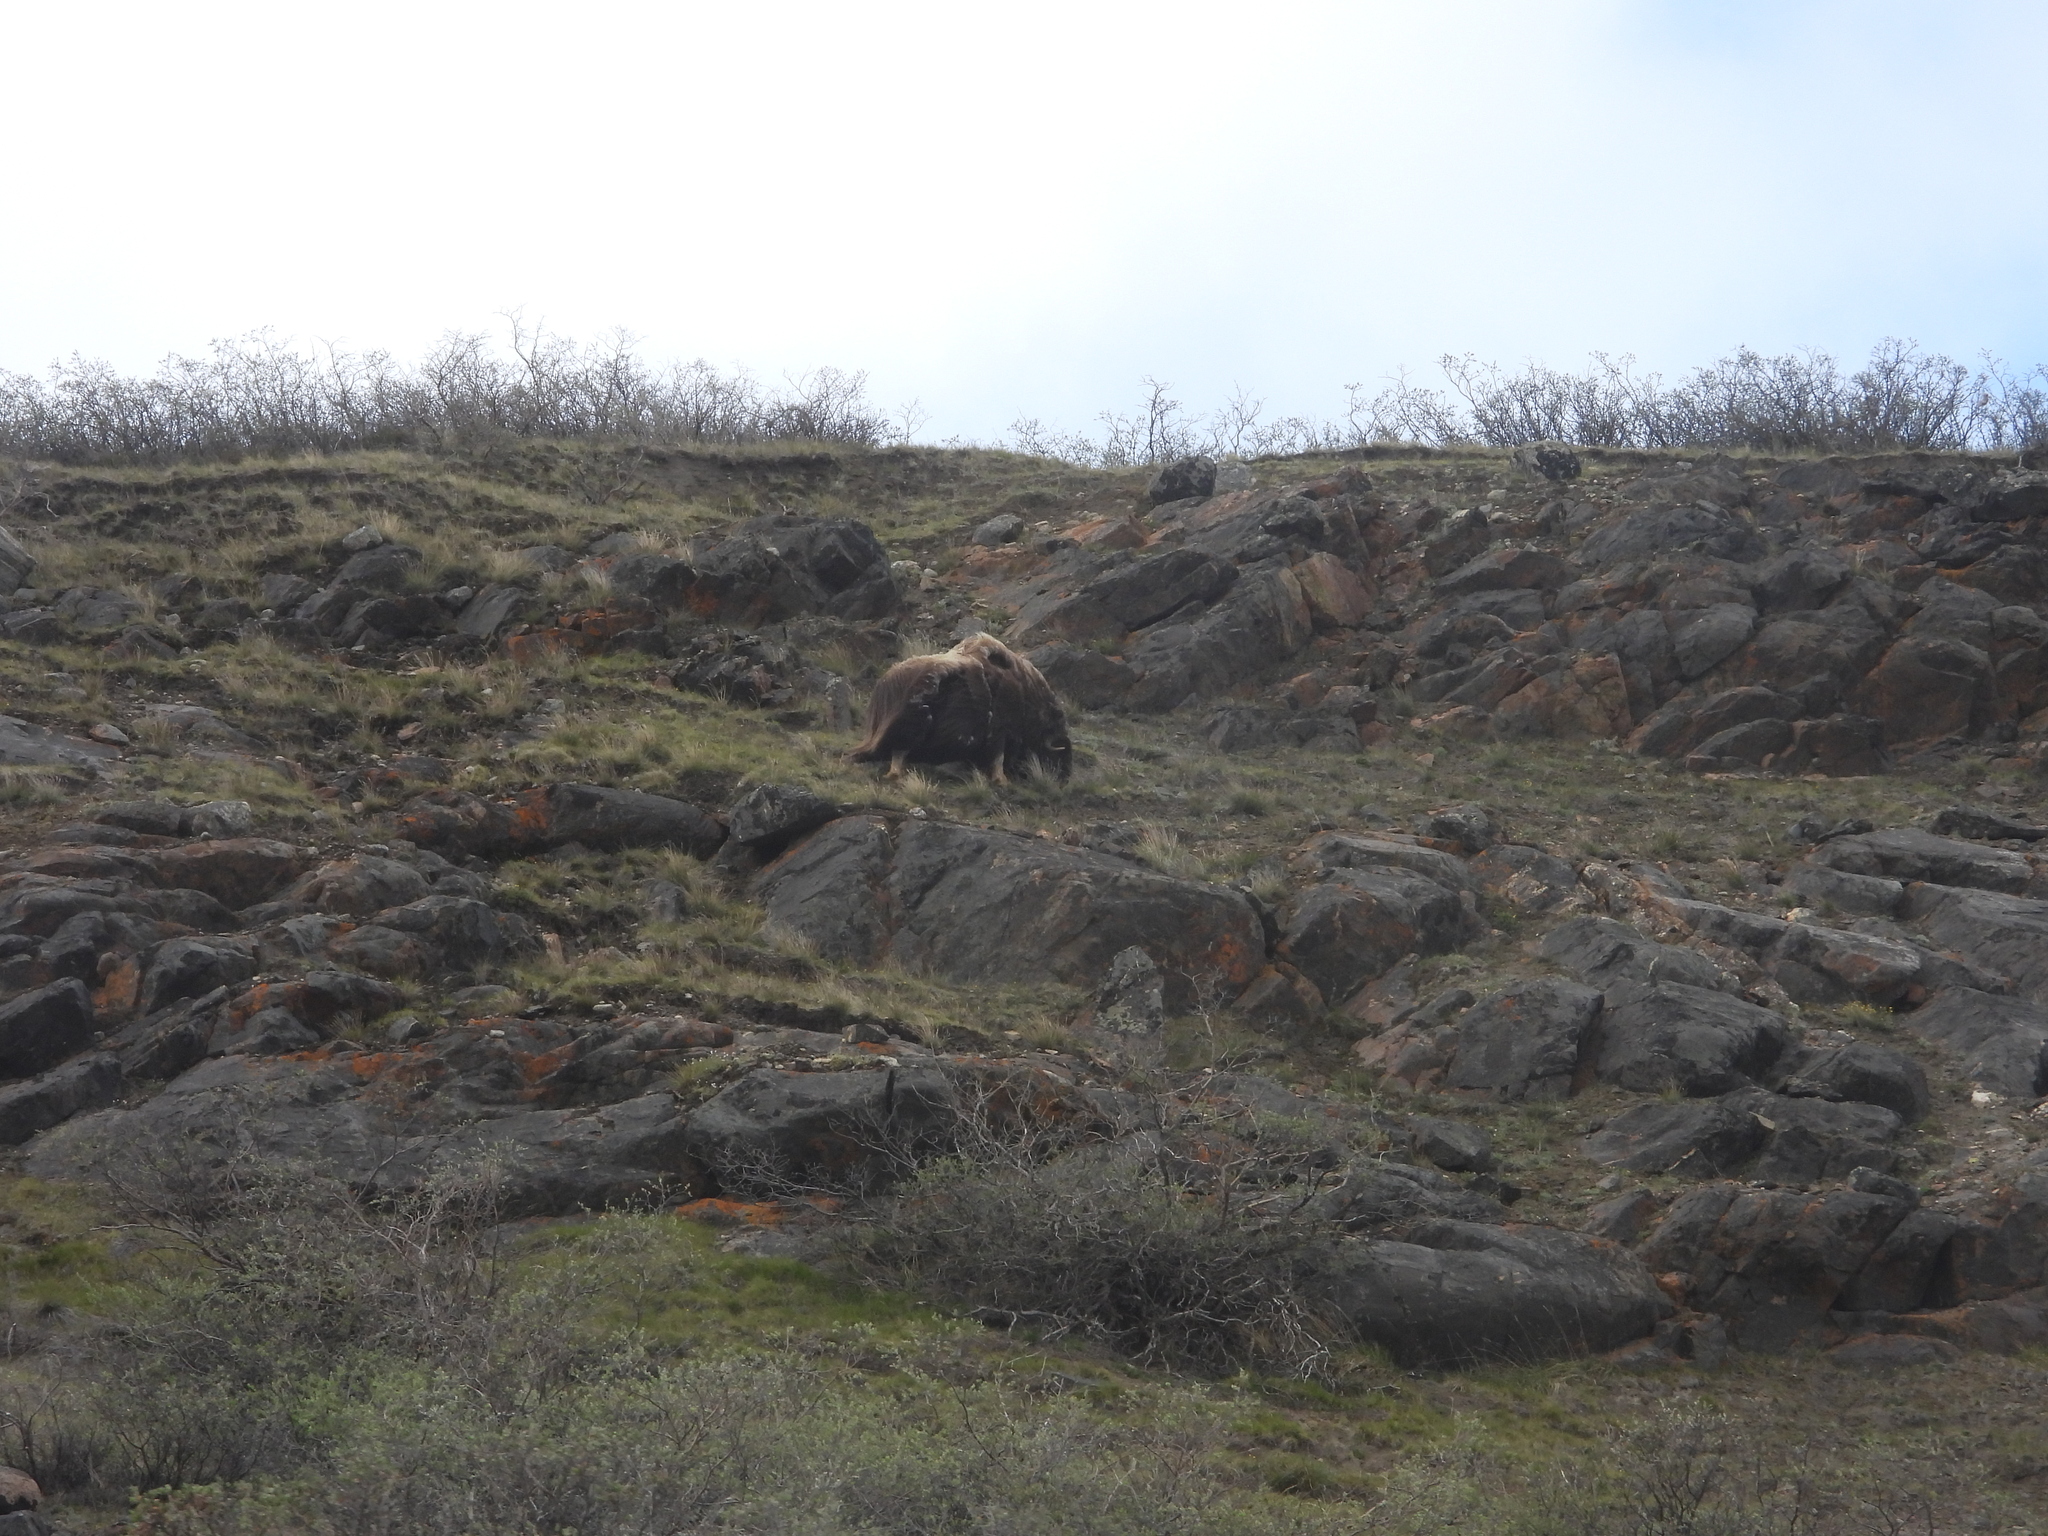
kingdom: Animalia
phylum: Chordata
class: Mammalia
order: Artiodactyla
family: Bovidae
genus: Ovibos
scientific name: Ovibos moschatus
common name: Muskox
